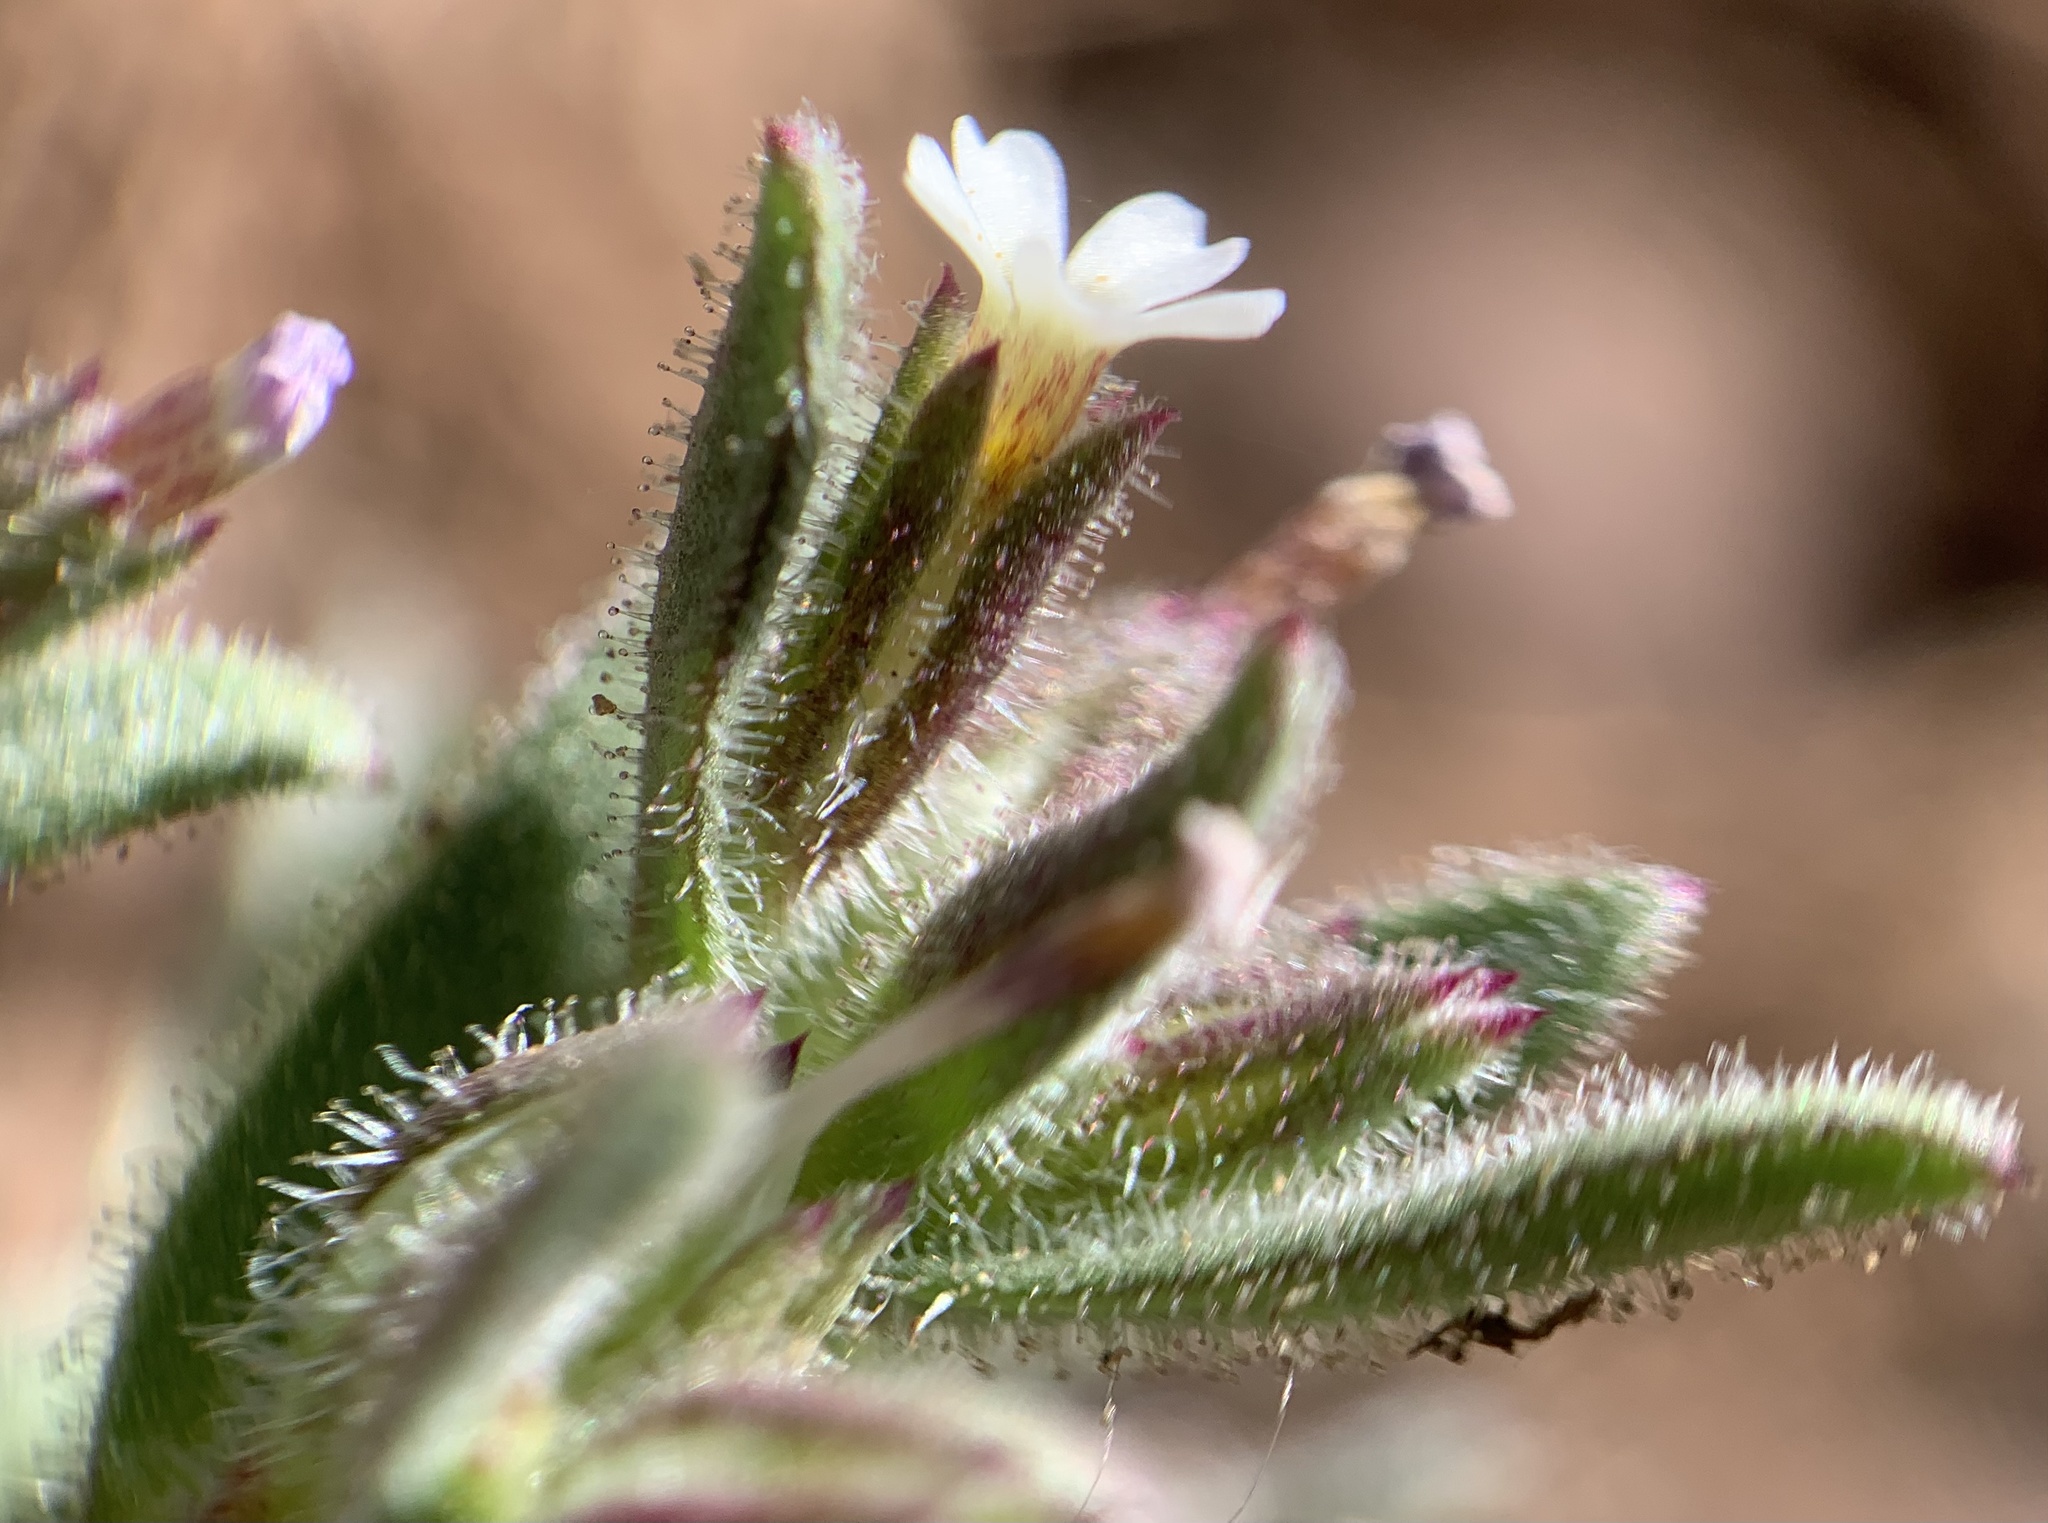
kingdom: Plantae
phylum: Tracheophyta
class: Magnoliopsida
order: Ericales
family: Polemoniaceae
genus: Phlox
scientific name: Phlox gracilis
